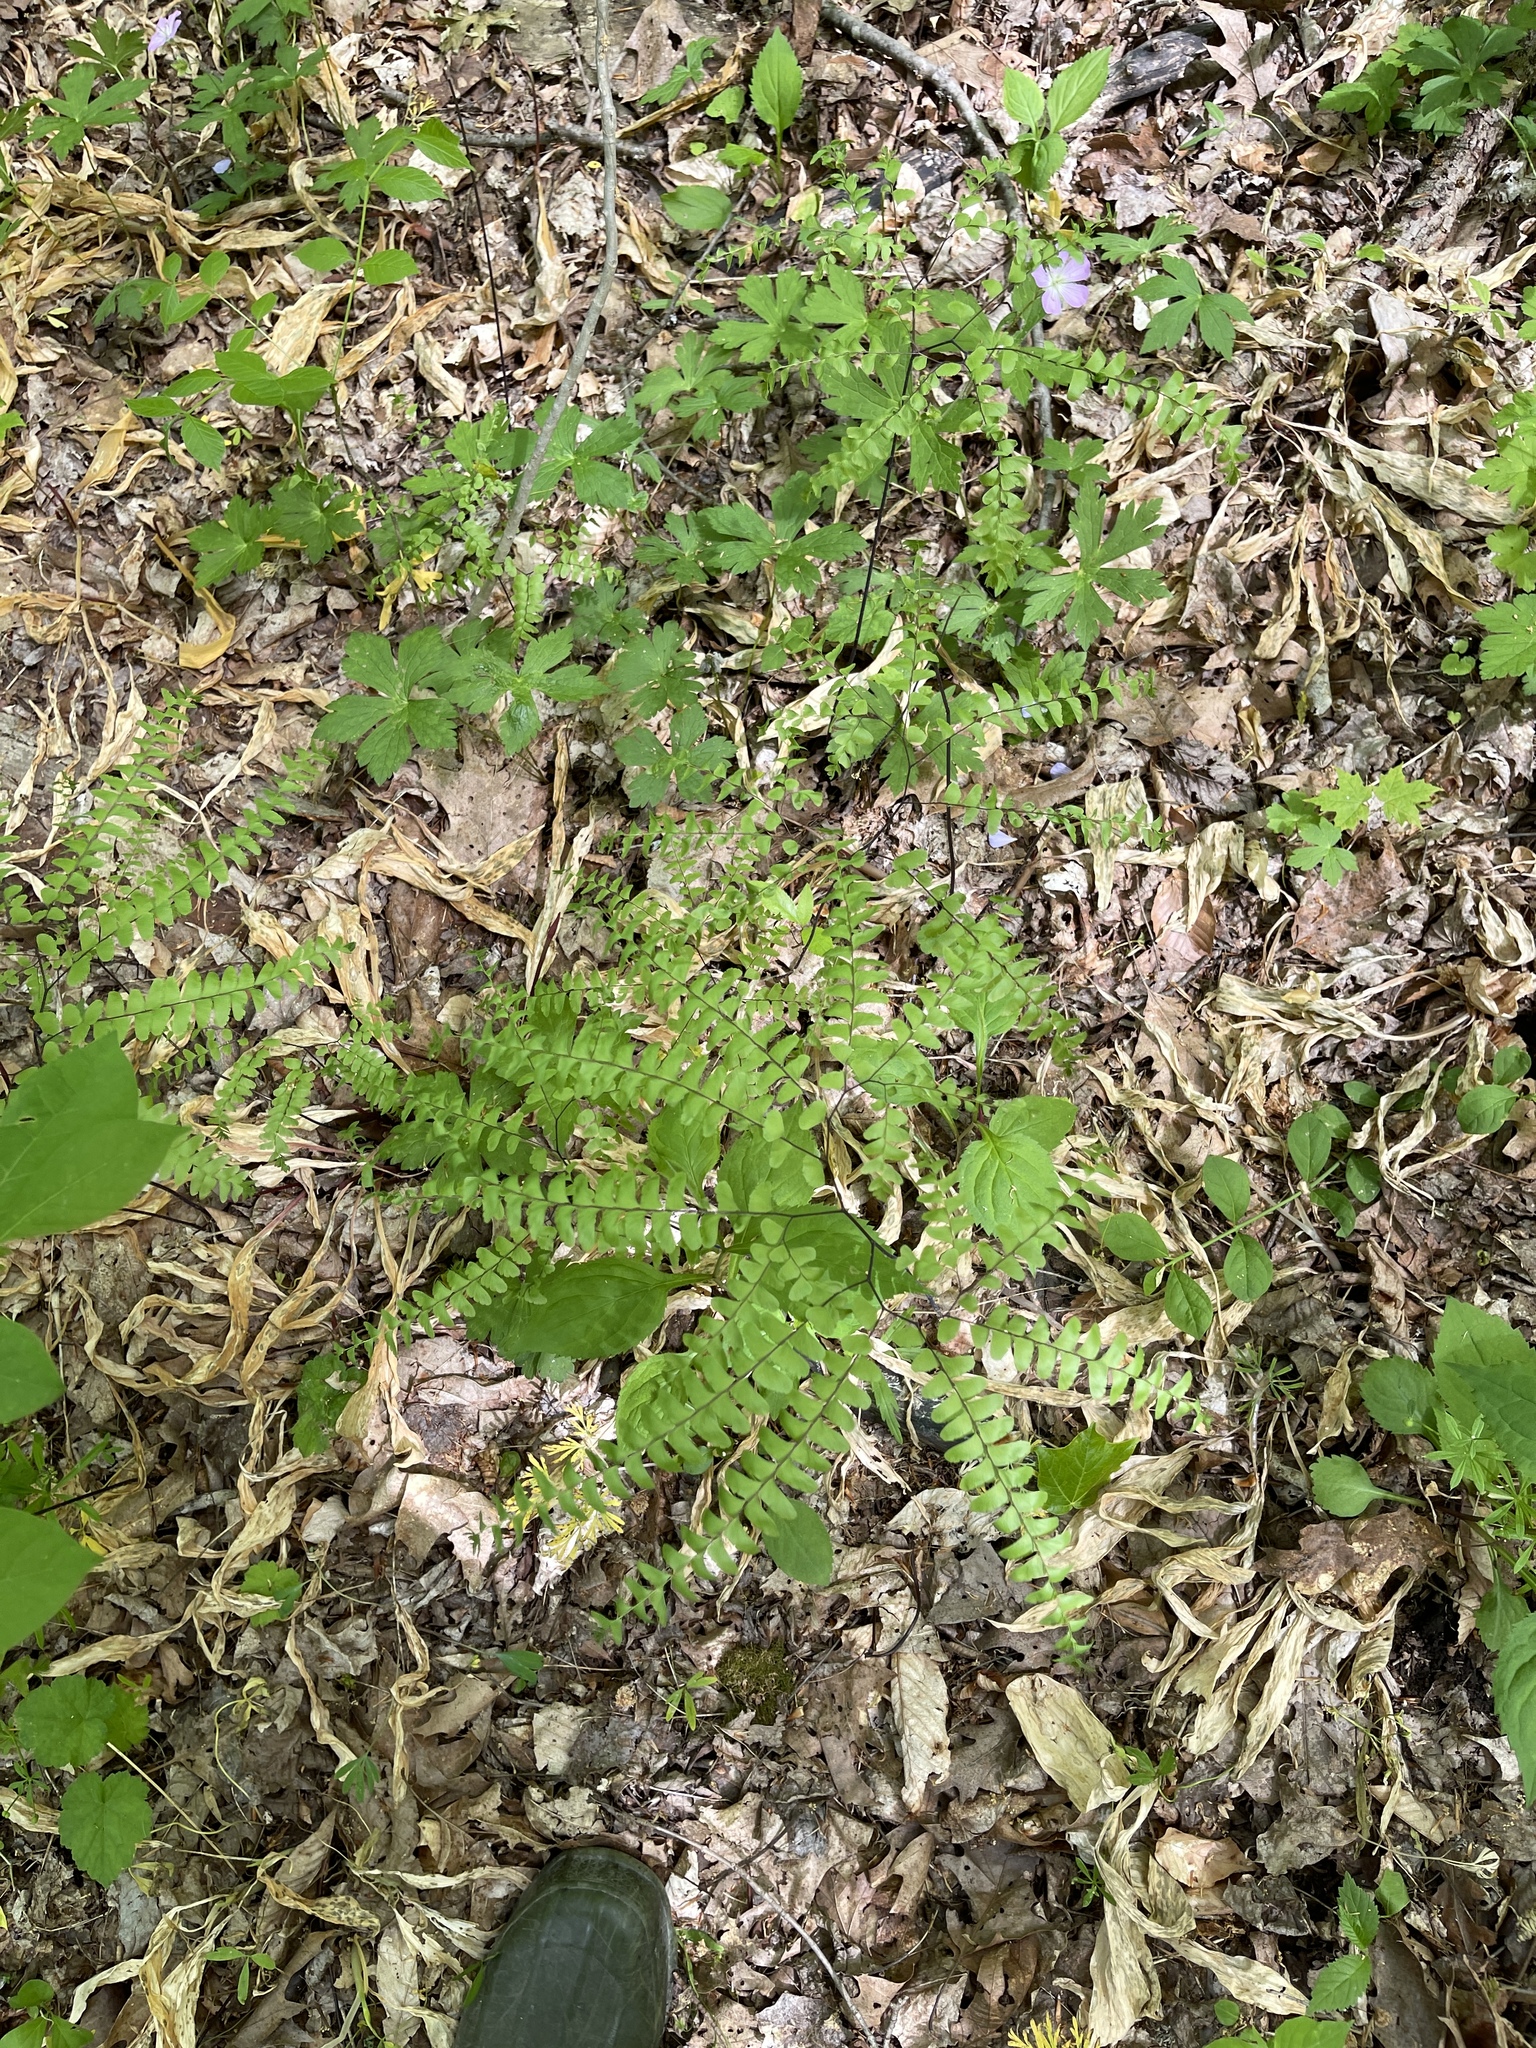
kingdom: Plantae
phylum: Tracheophyta
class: Polypodiopsida
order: Polypodiales
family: Pteridaceae
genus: Adiantum
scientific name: Adiantum pedatum
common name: Five-finger fern
